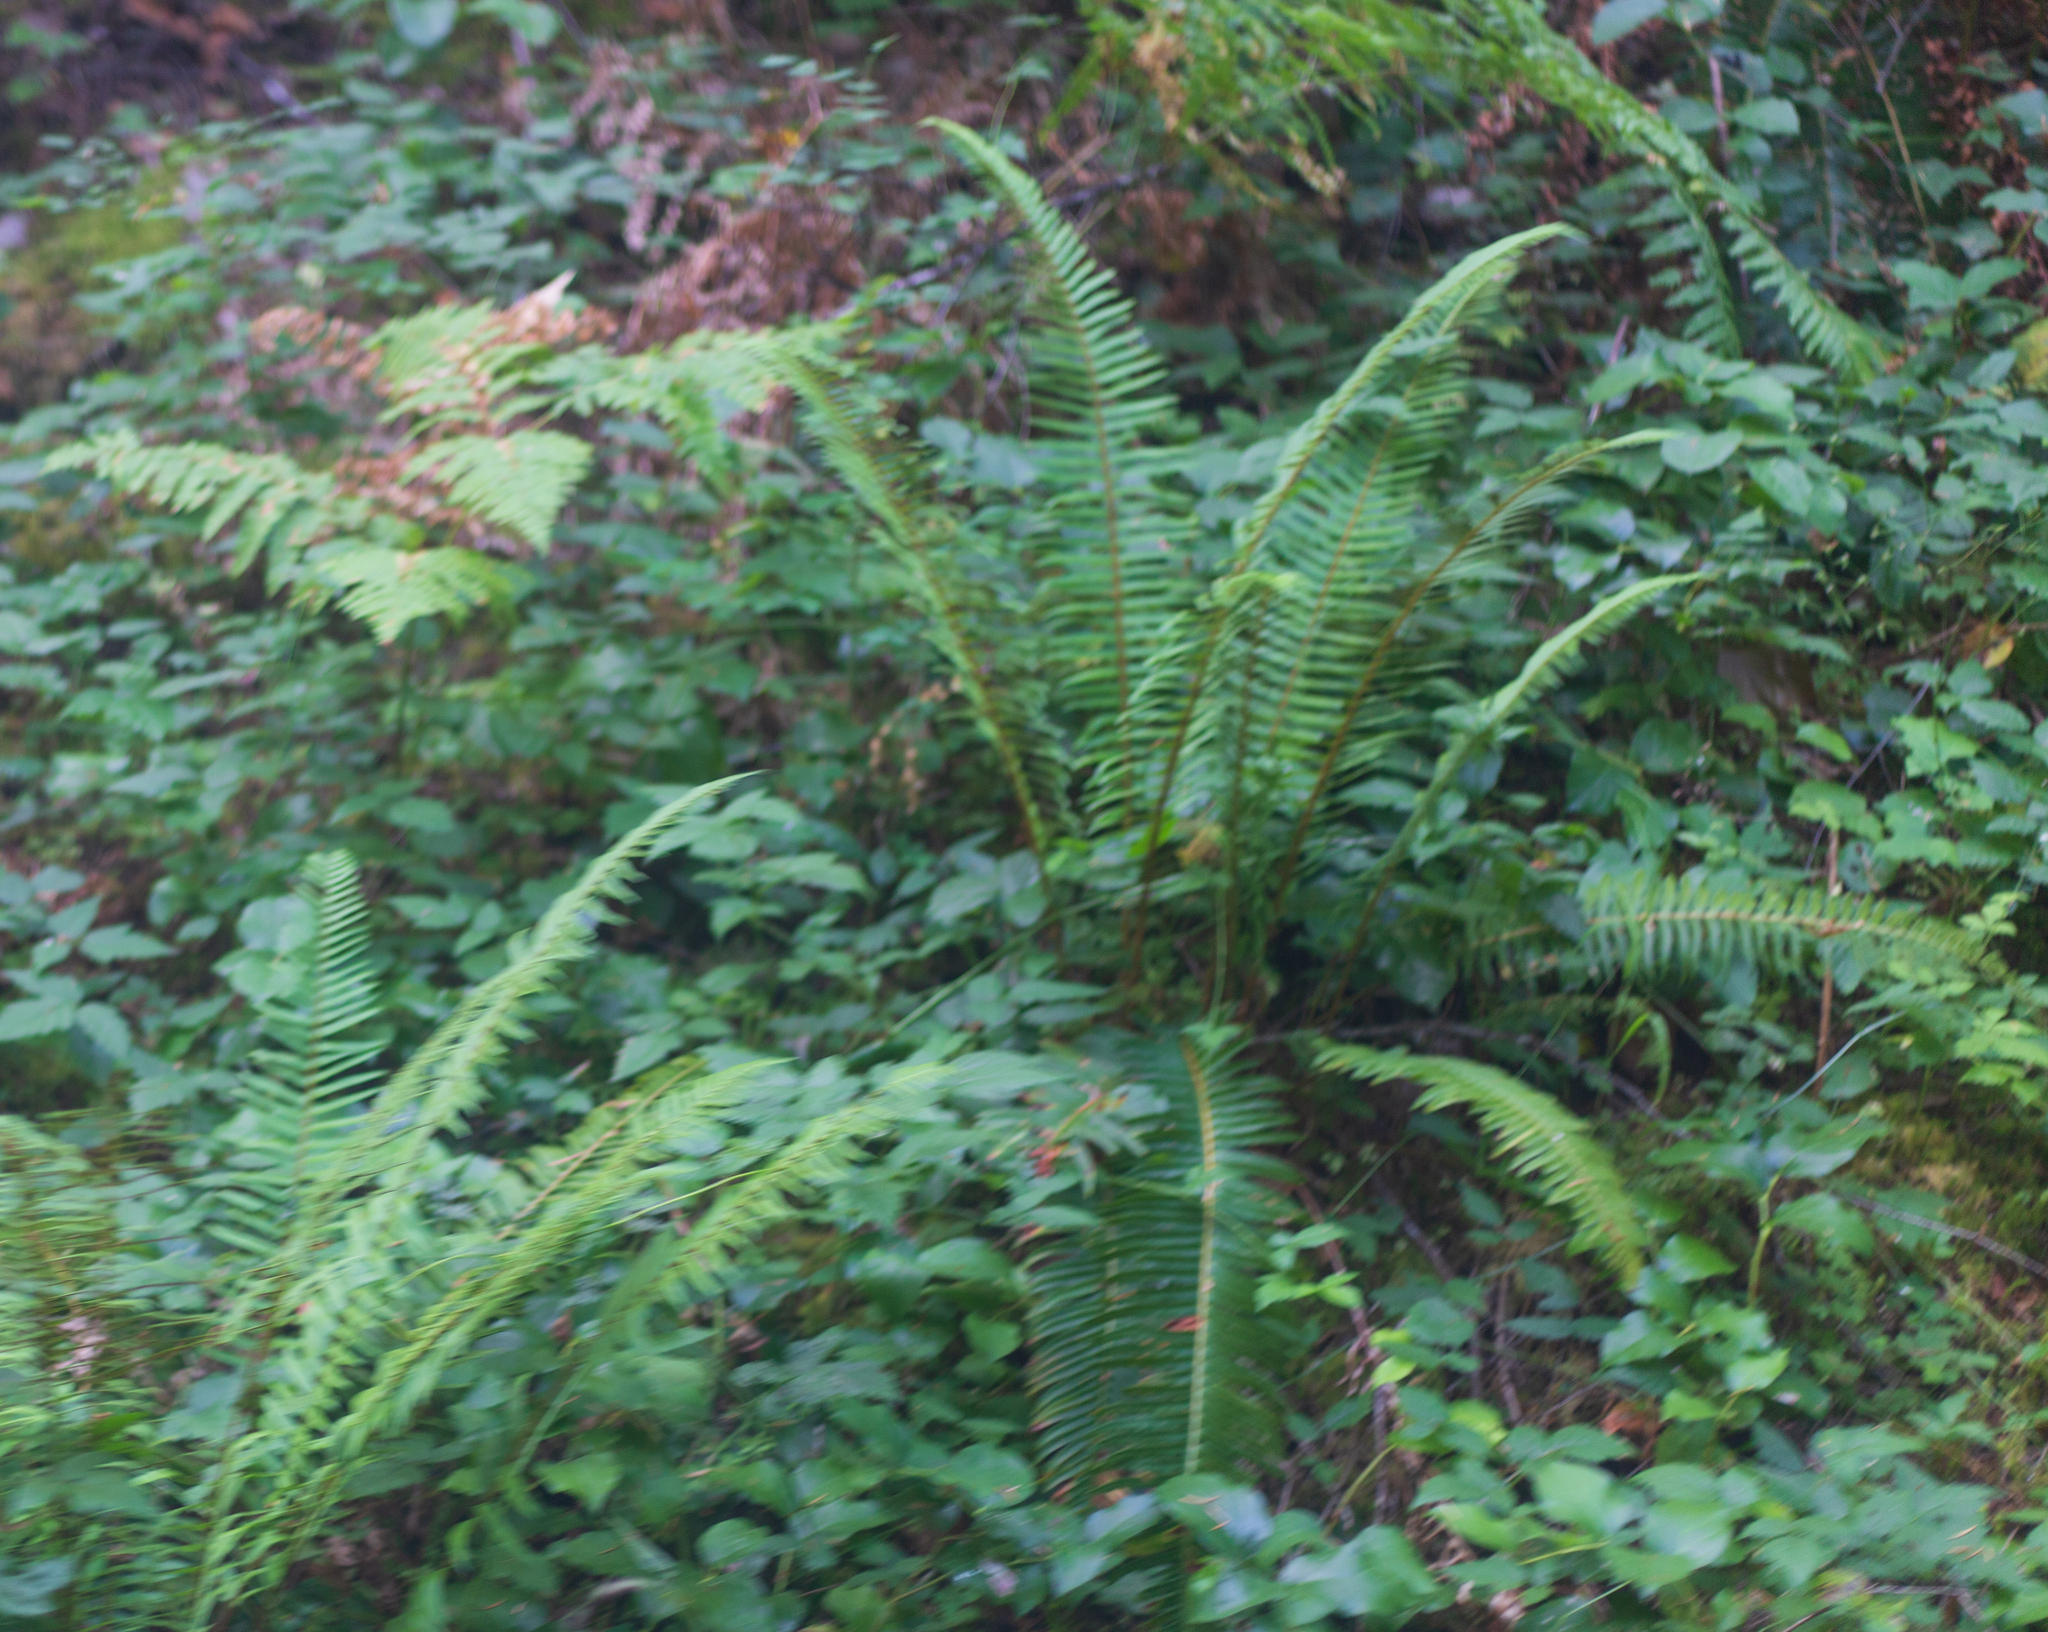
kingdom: Plantae
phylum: Tracheophyta
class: Polypodiopsida
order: Polypodiales
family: Dryopteridaceae
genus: Polystichum
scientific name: Polystichum munitum
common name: Western sword-fern
